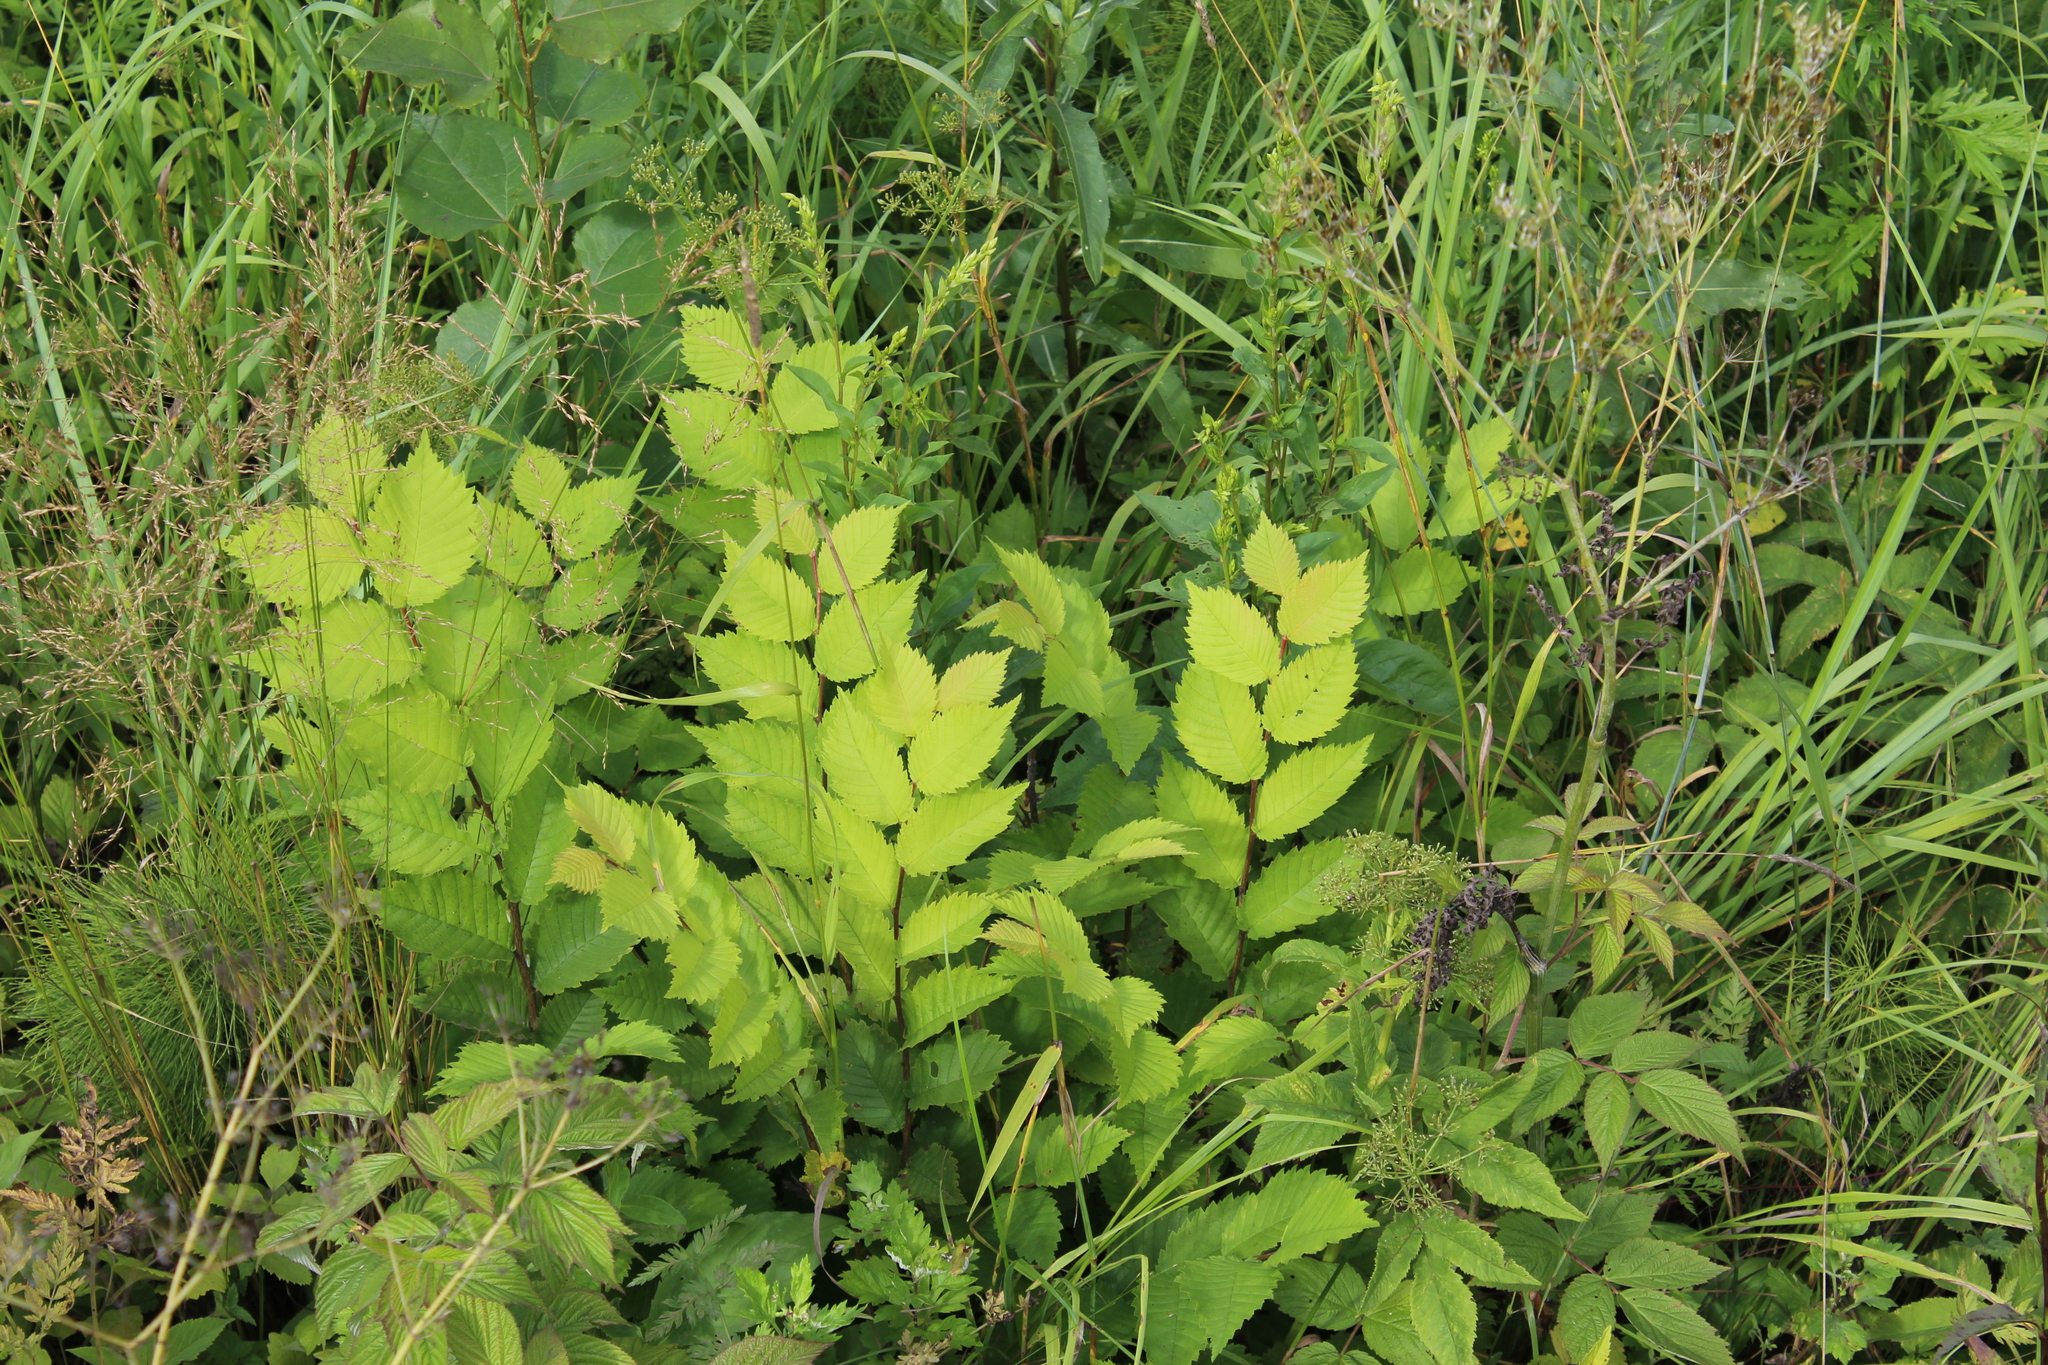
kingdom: Plantae
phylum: Tracheophyta
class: Magnoliopsida
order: Rosales
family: Ulmaceae
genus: Ulmus
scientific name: Ulmus laevis
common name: European white-elm
